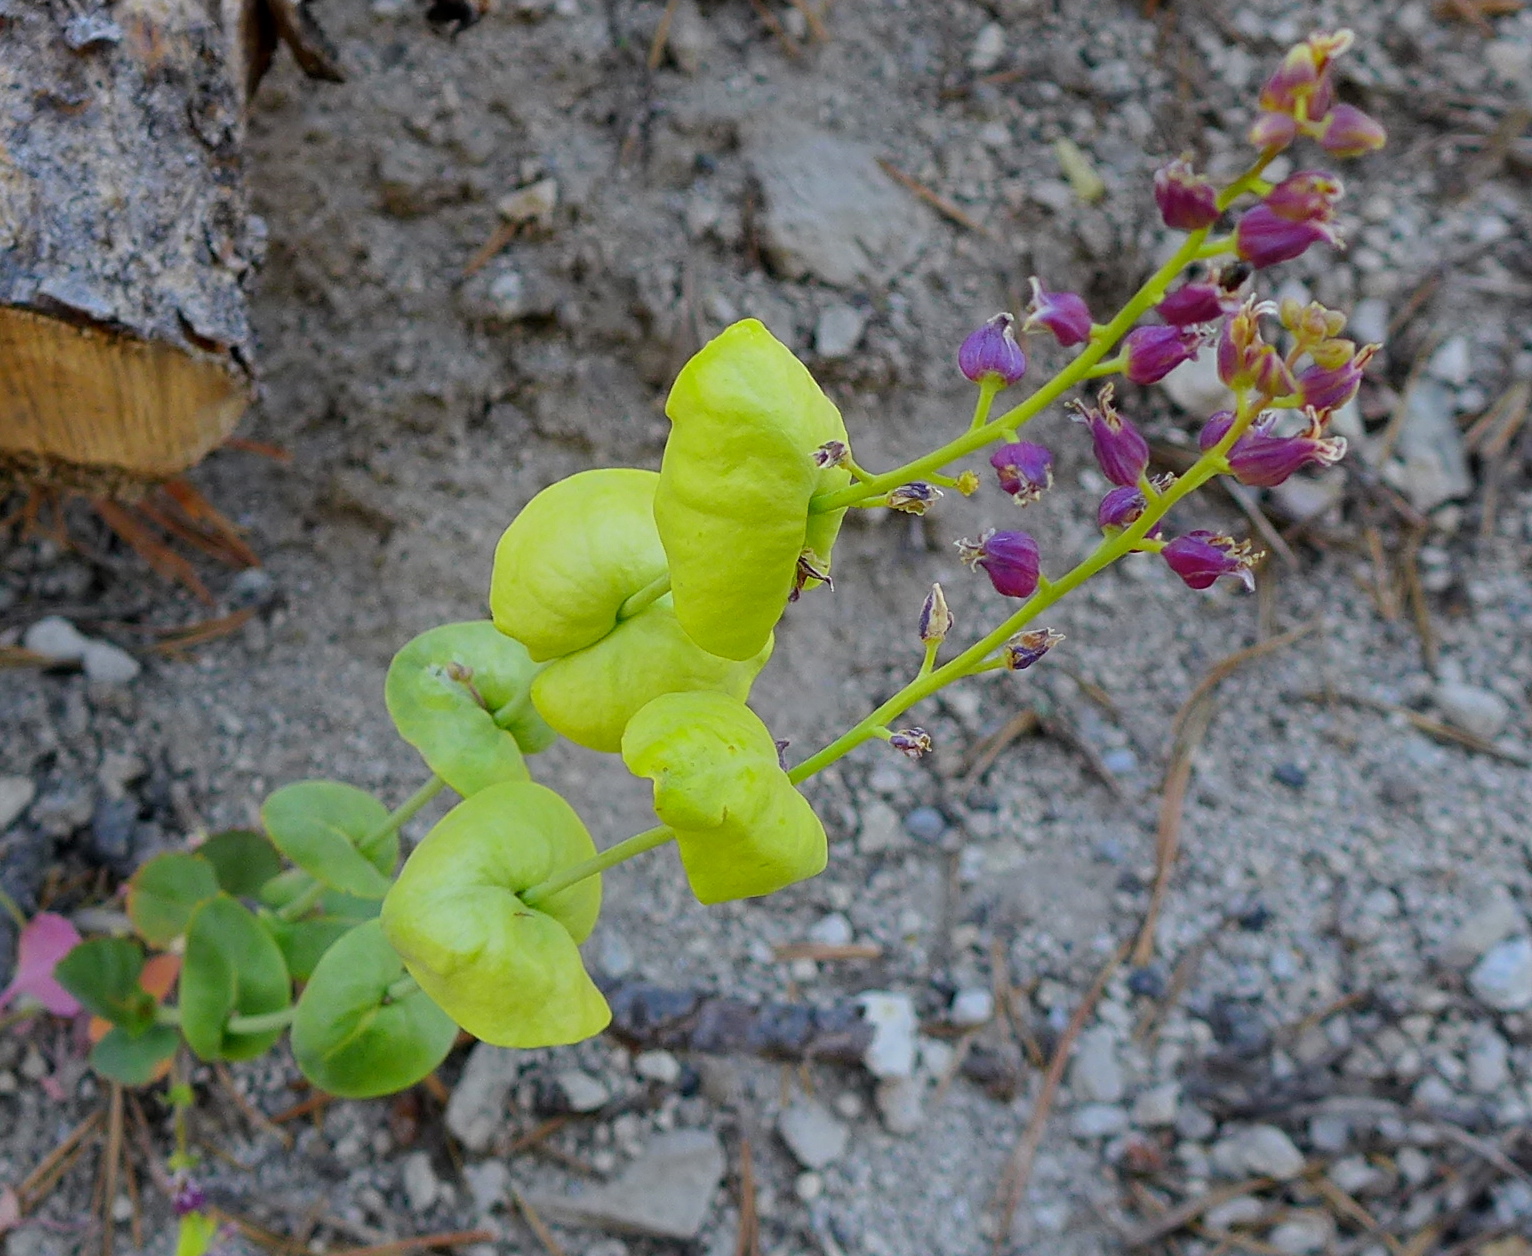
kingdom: Plantae
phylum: Tracheophyta
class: Magnoliopsida
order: Brassicales
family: Brassicaceae
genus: Streptanthus
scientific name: Streptanthus tortuosus
